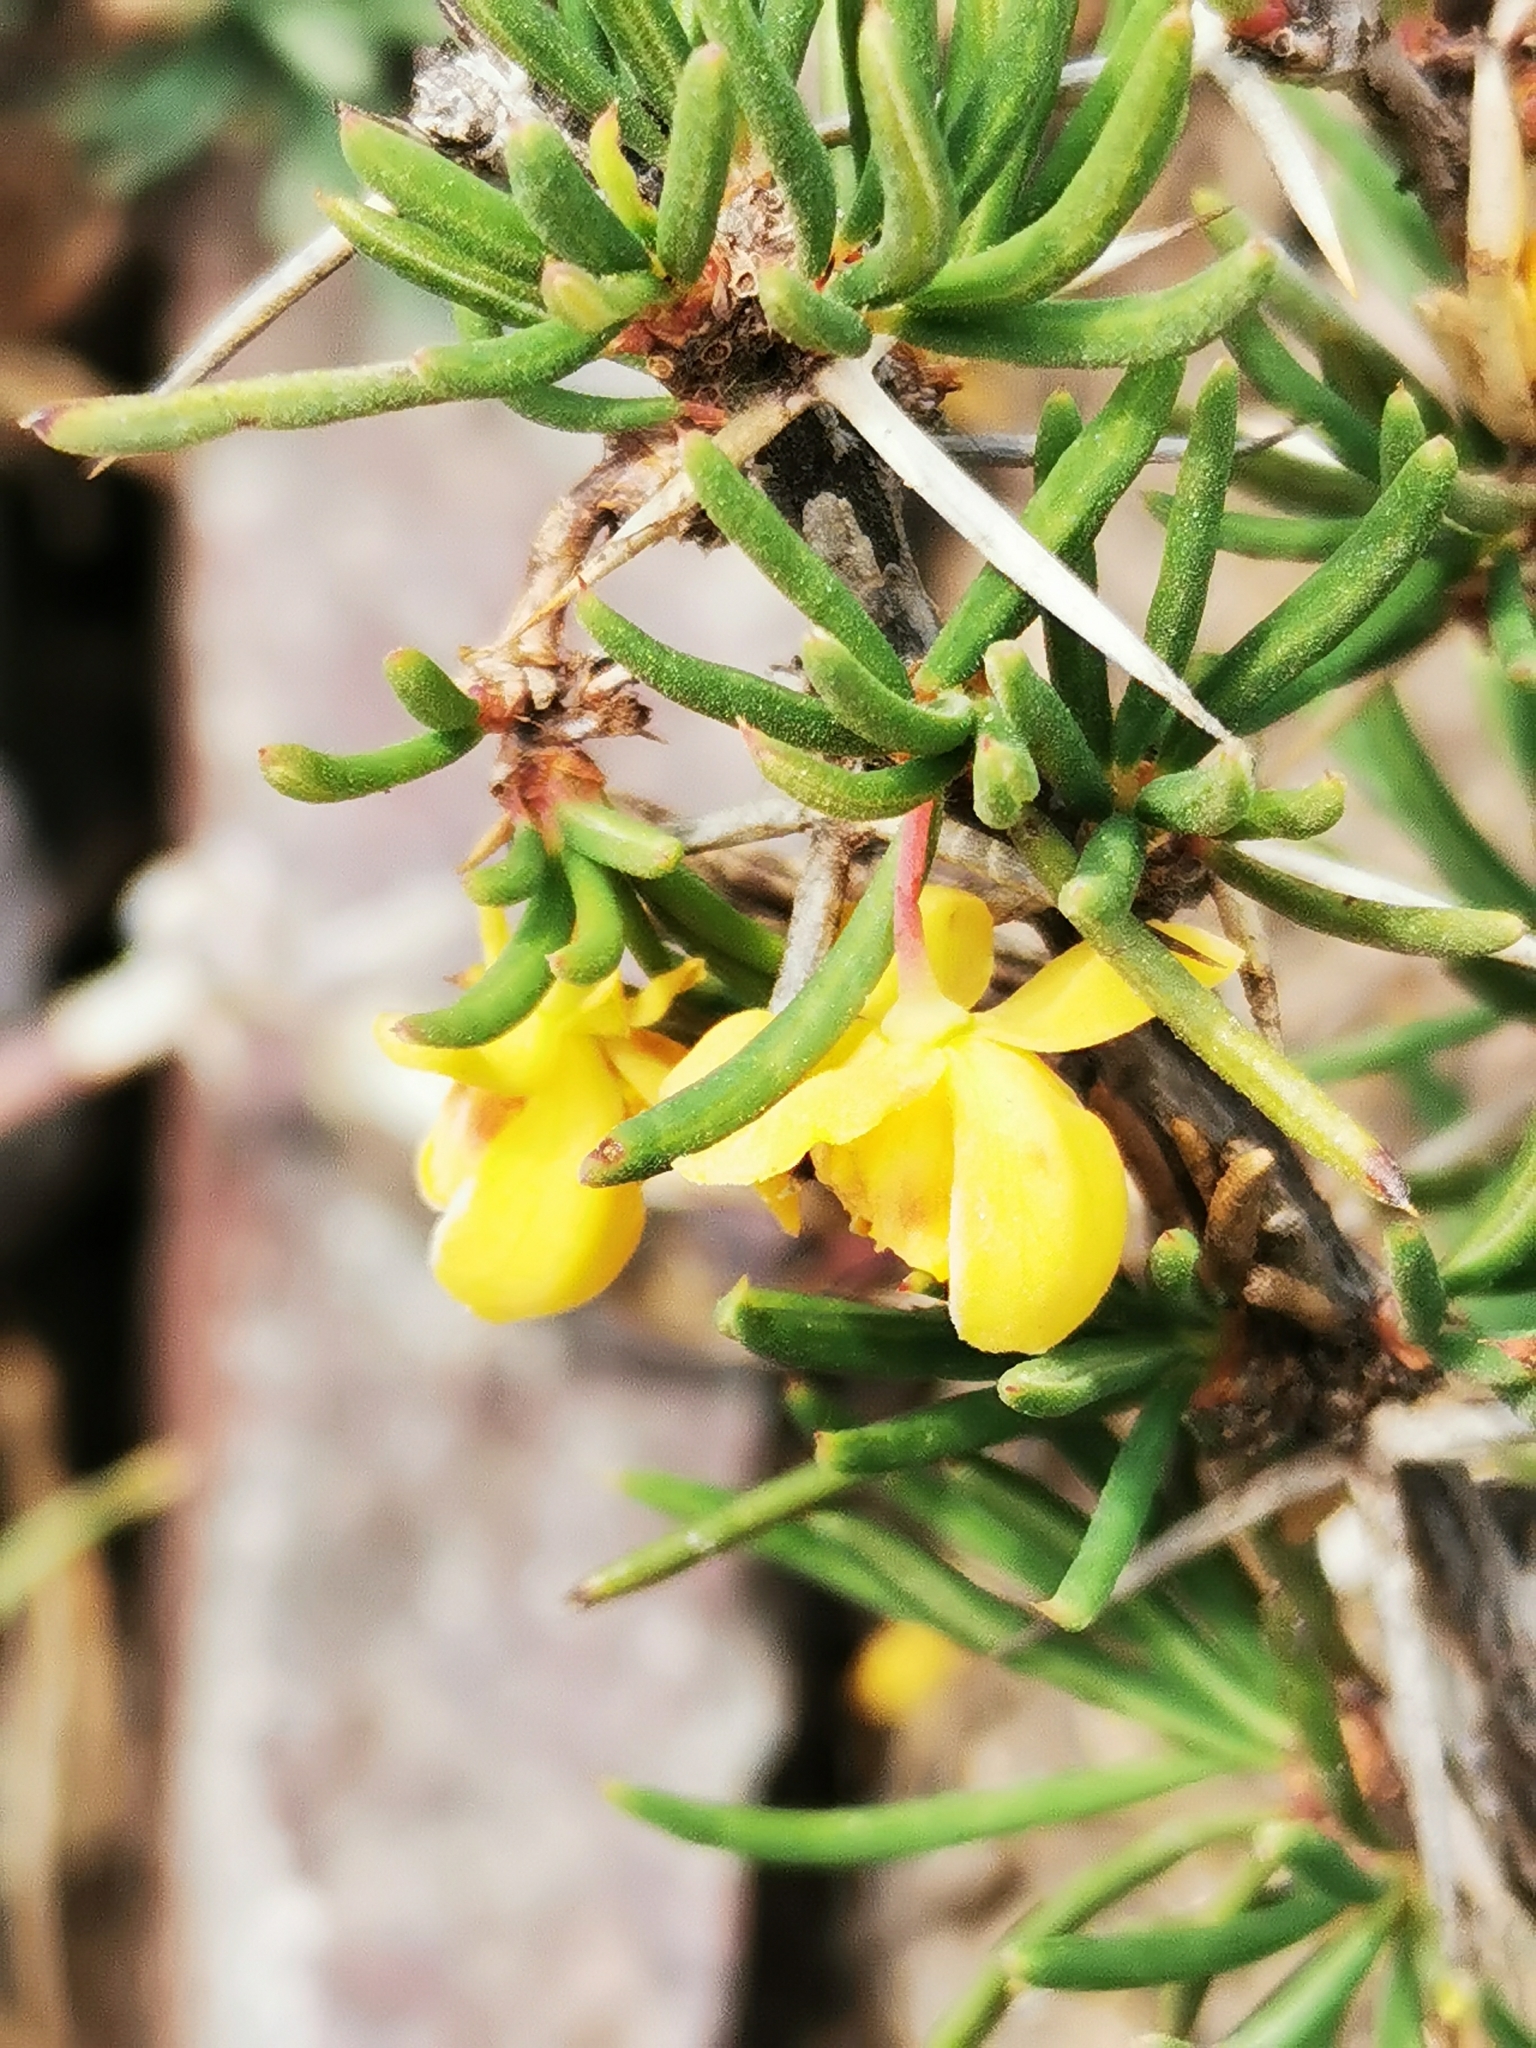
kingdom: Plantae
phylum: Tracheophyta
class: Magnoliopsida
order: Ranunculales
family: Berberidaceae
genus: Berberis
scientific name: Berberis empetrifolia
